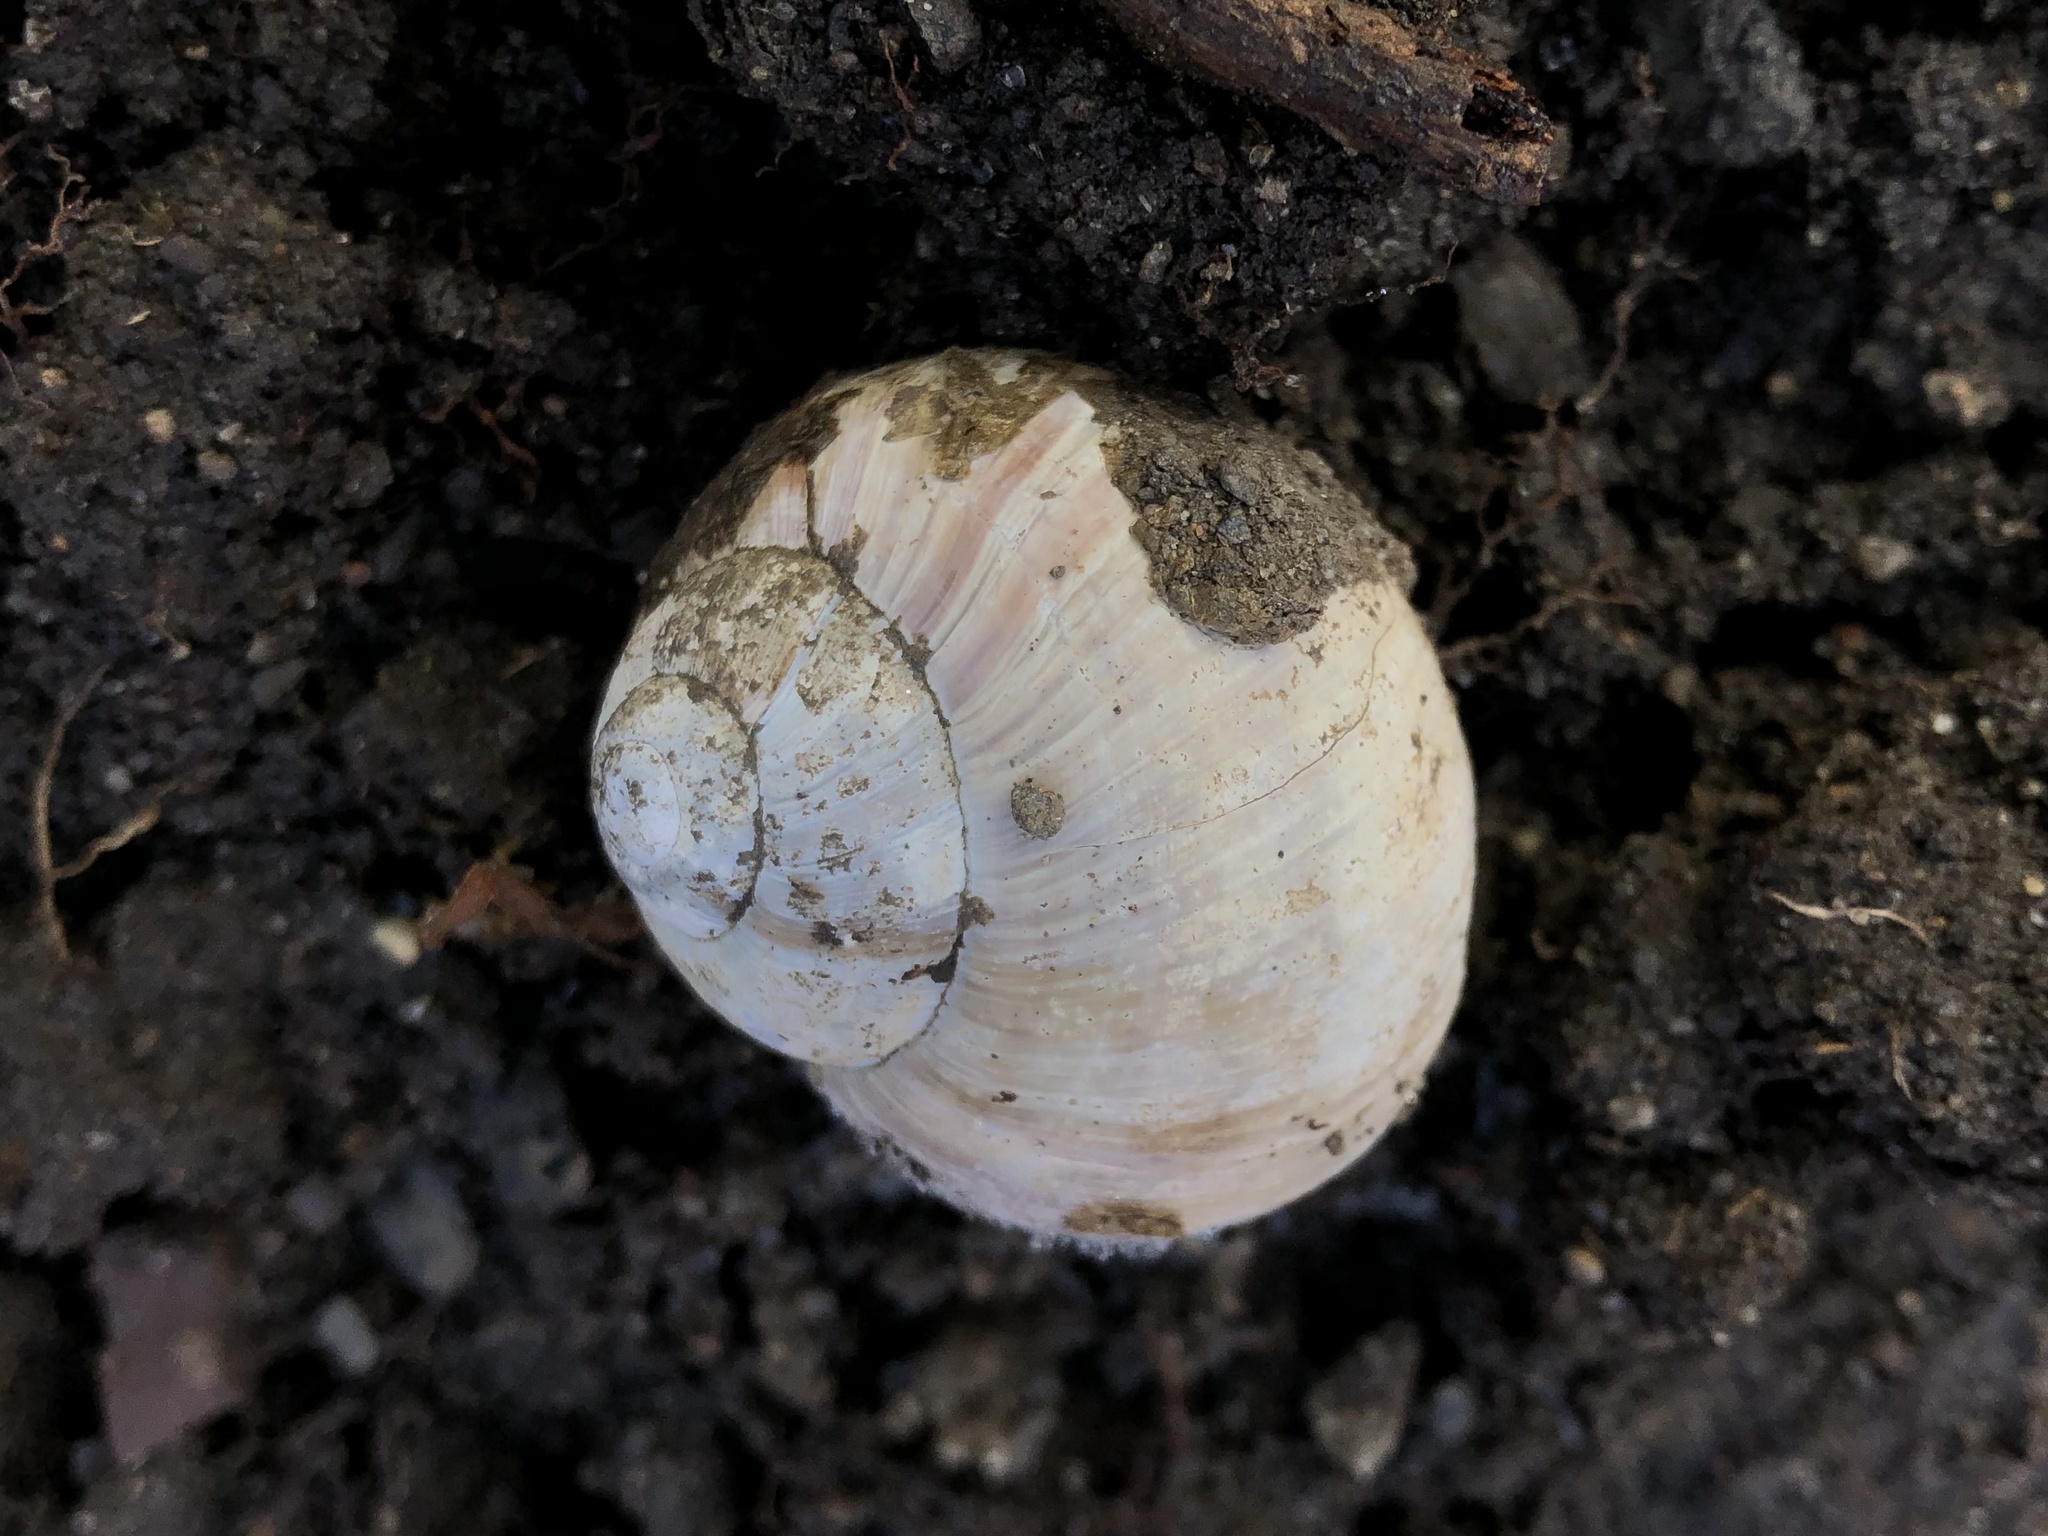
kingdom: Animalia
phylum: Mollusca
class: Gastropoda
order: Stylommatophora
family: Helicidae
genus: Helix
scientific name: Helix pomatia
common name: Roman snail
